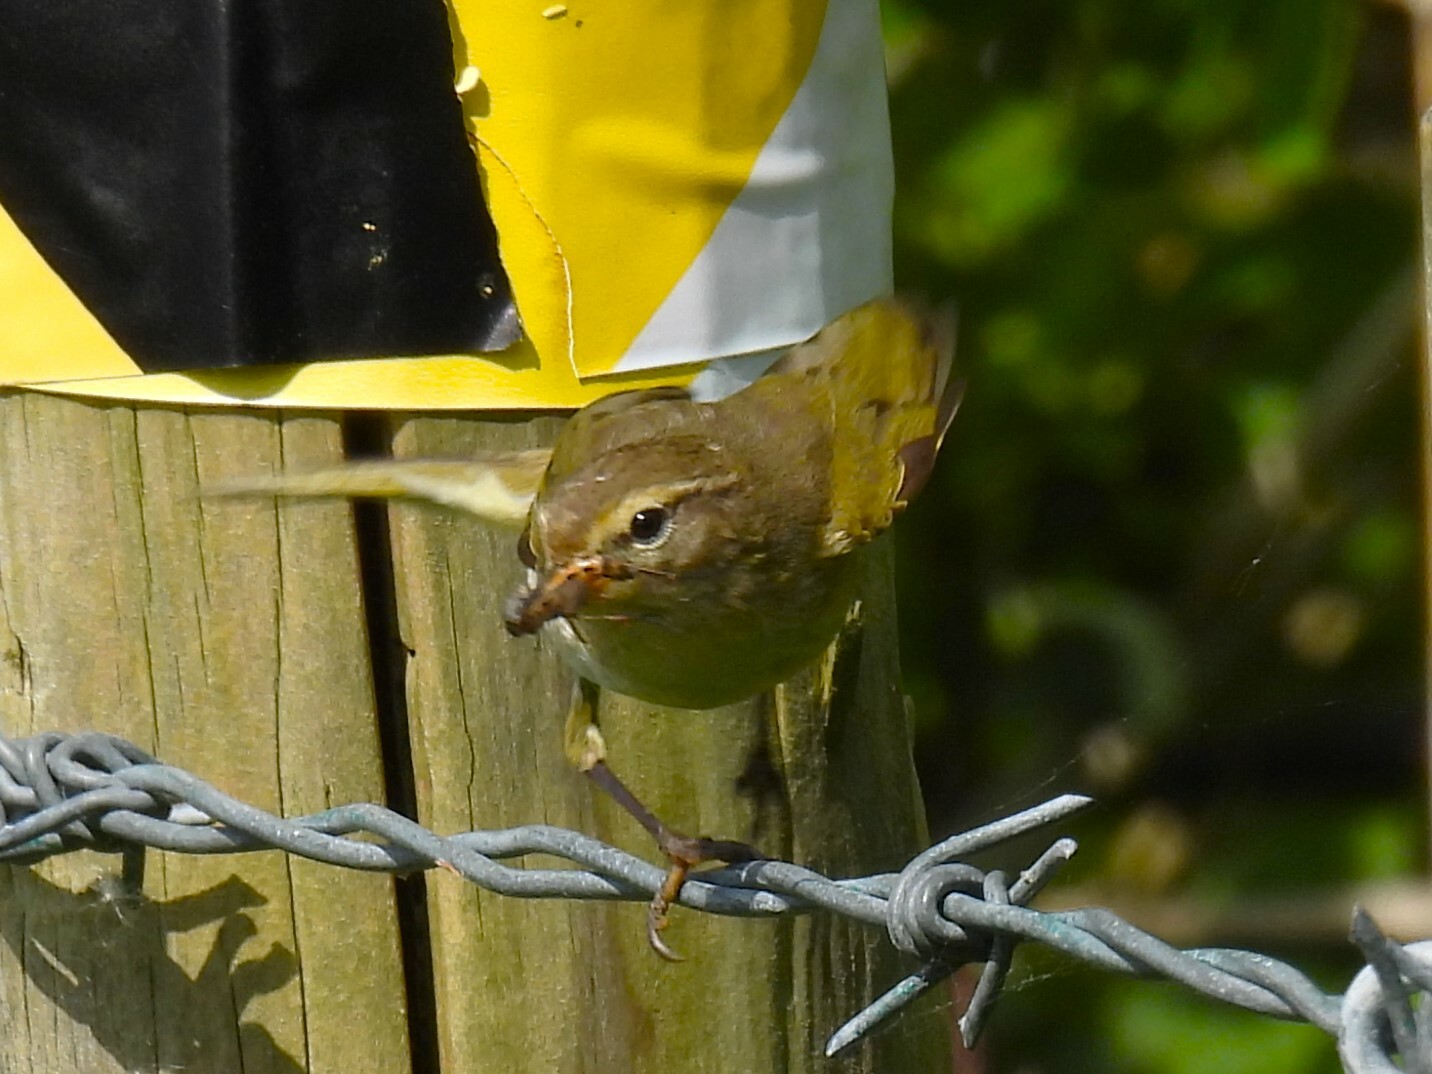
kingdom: Animalia
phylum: Chordata
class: Aves
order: Passeriformes
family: Phylloscopidae
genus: Phylloscopus
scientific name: Phylloscopus trochilus
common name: Willow warbler
